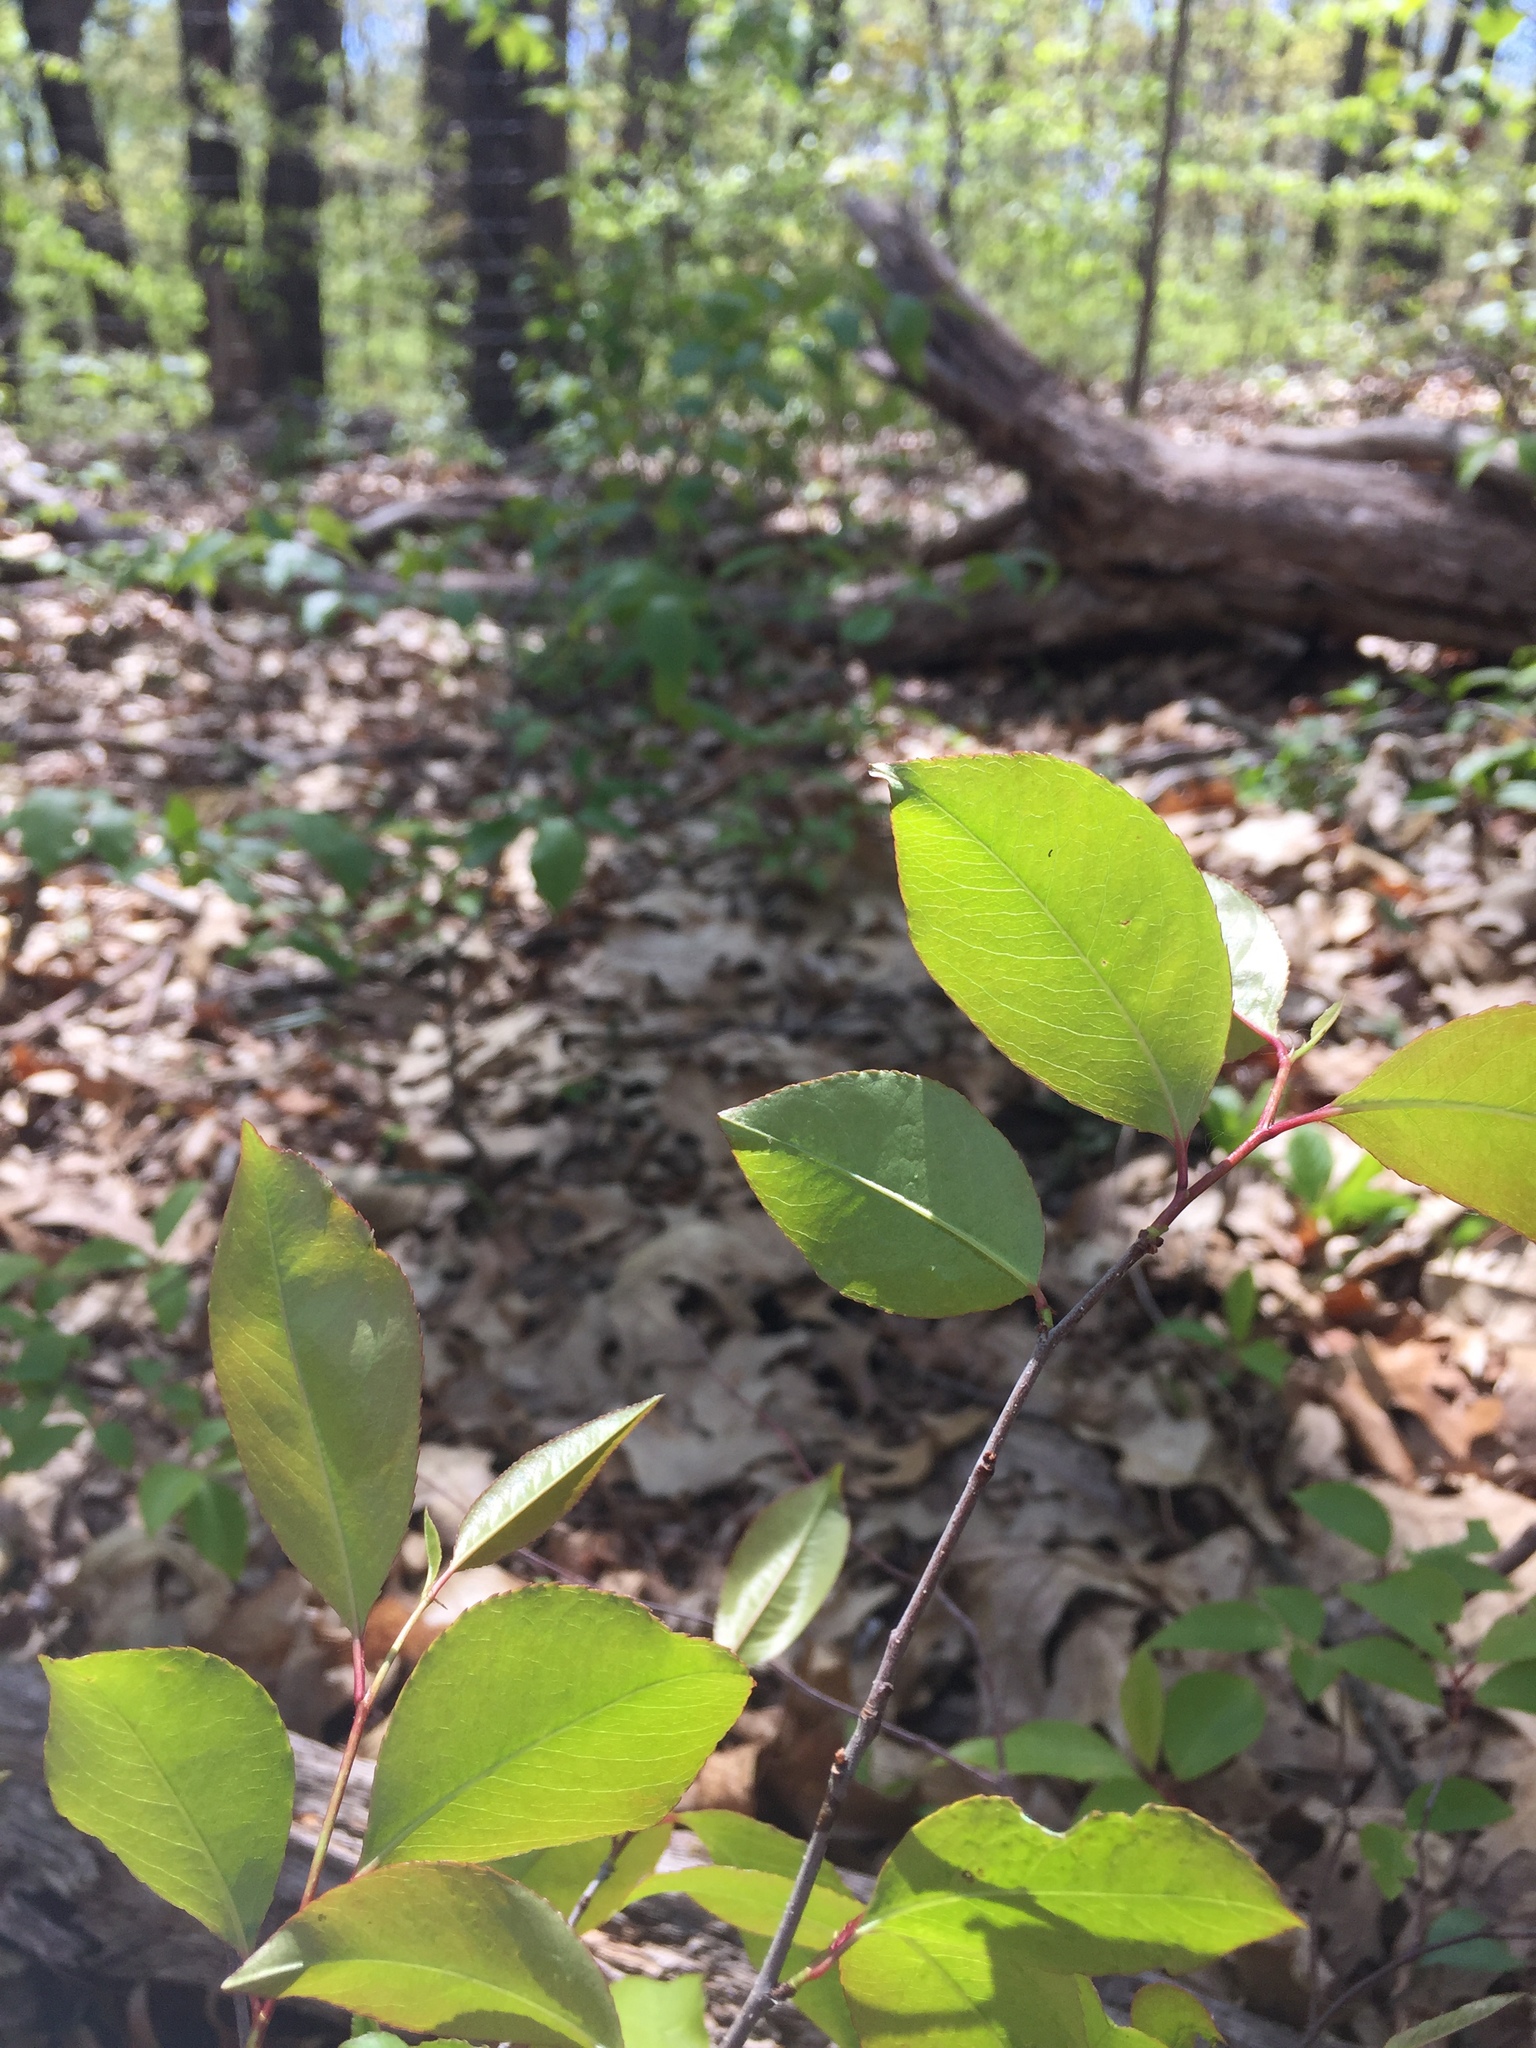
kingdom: Plantae
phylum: Tracheophyta
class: Magnoliopsida
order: Dipsacales
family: Viburnaceae
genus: Viburnum
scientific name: Viburnum prunifolium
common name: Black haw
